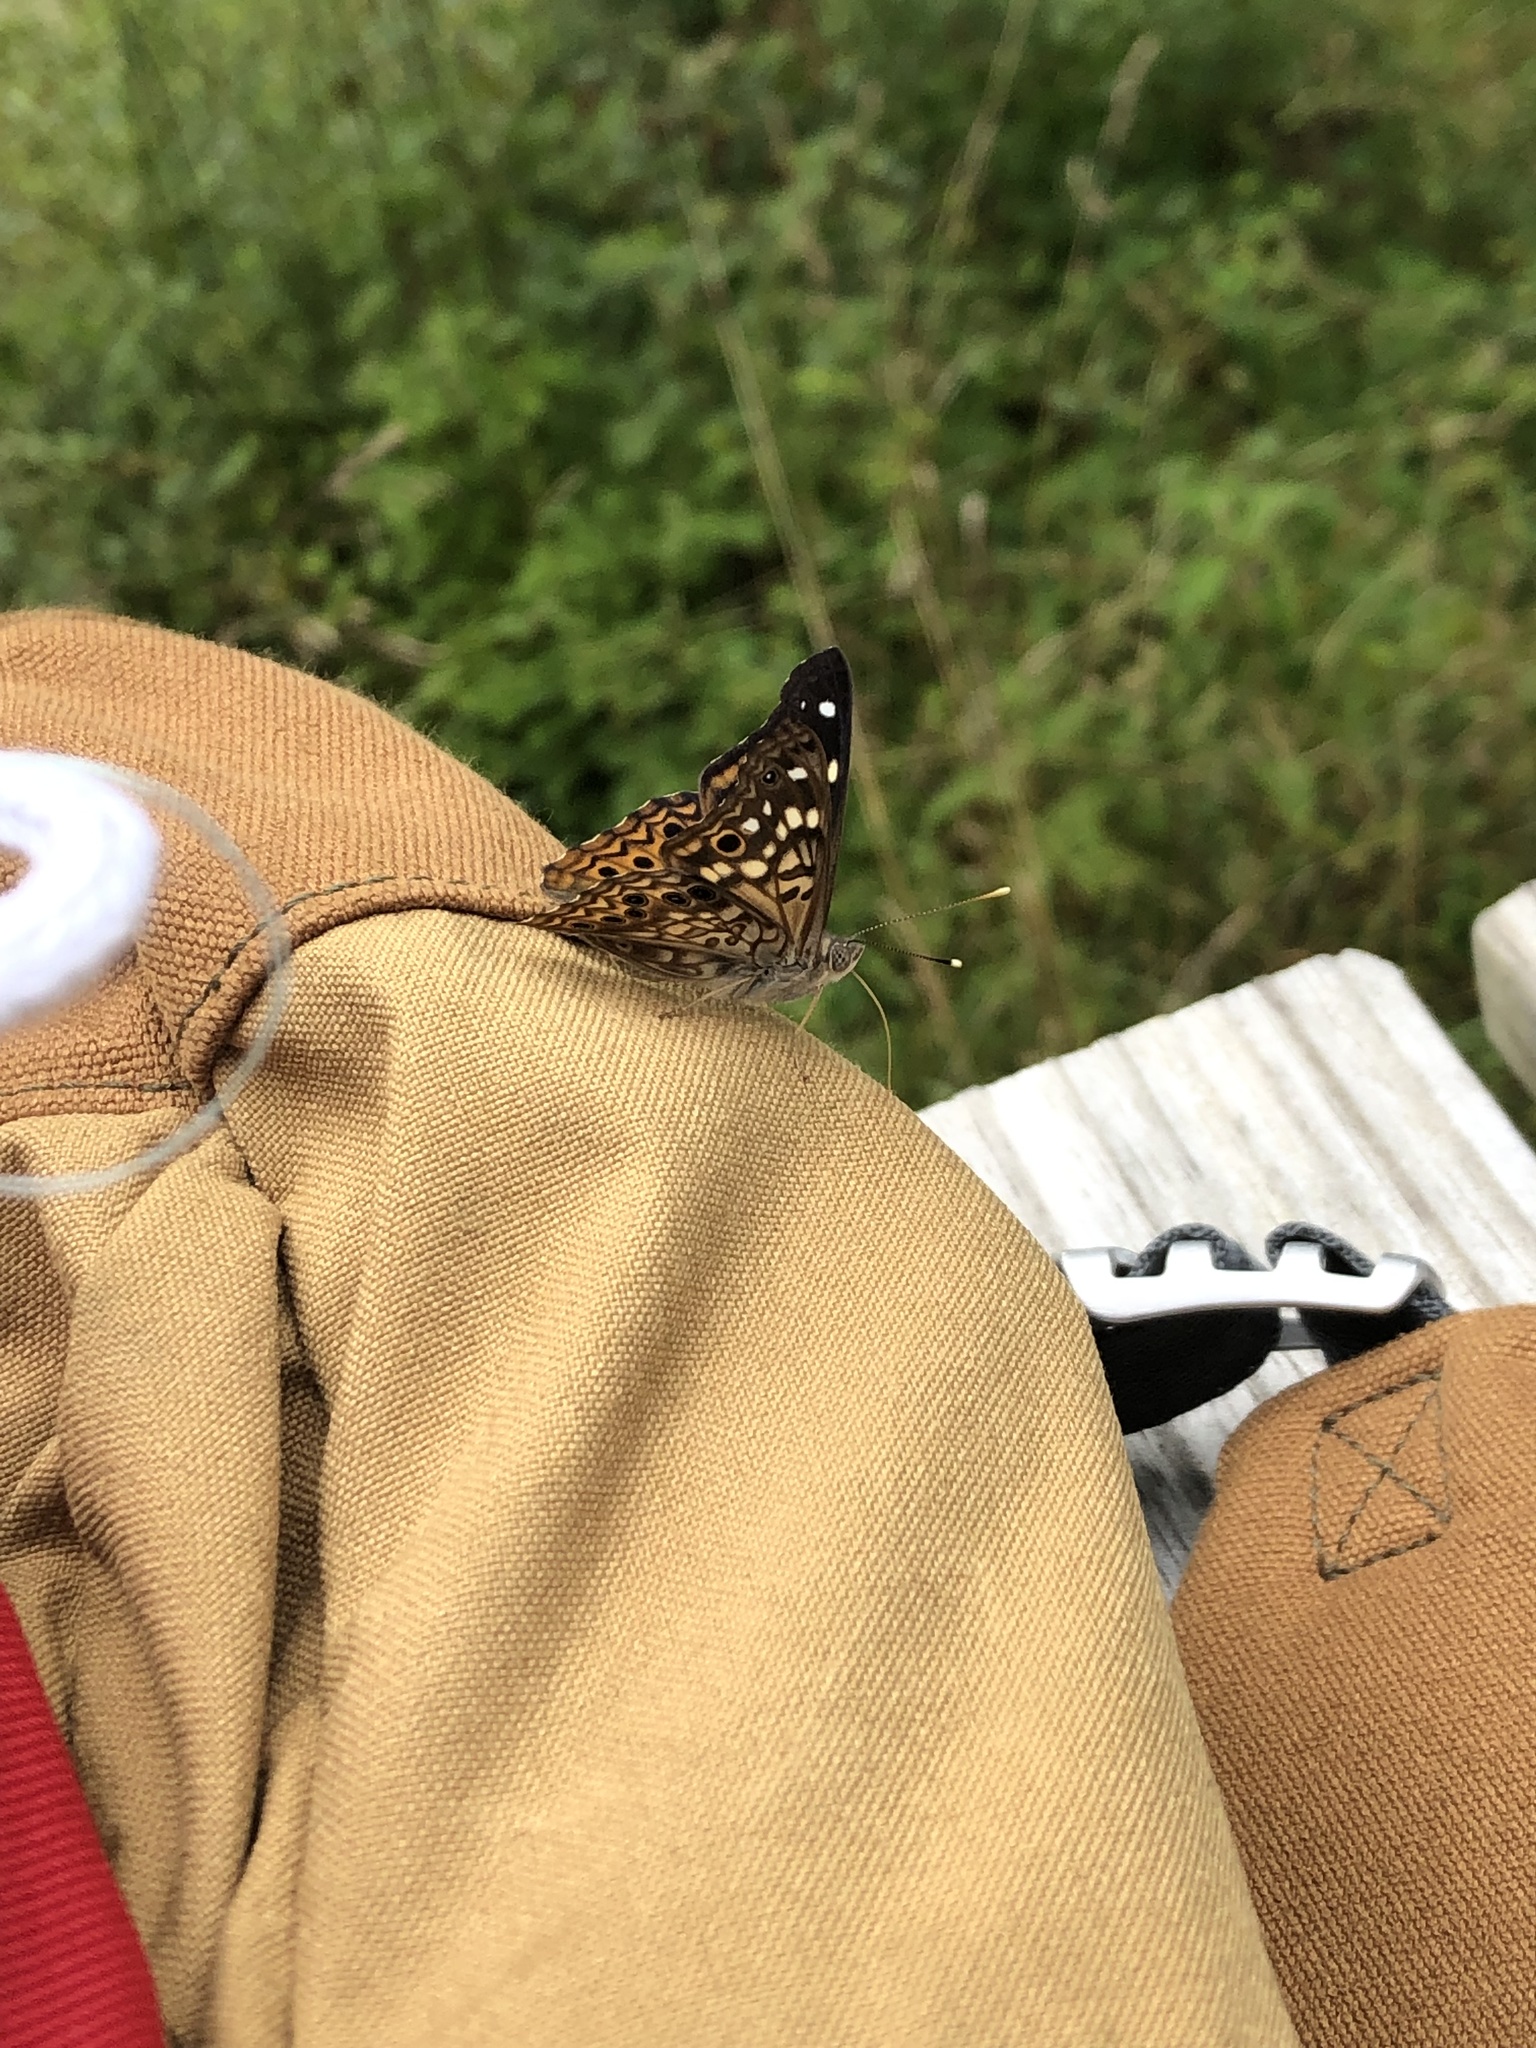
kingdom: Animalia
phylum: Arthropoda
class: Insecta
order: Lepidoptera
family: Nymphalidae
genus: Asterocampa
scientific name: Asterocampa celtis
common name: Hackberry emperor
